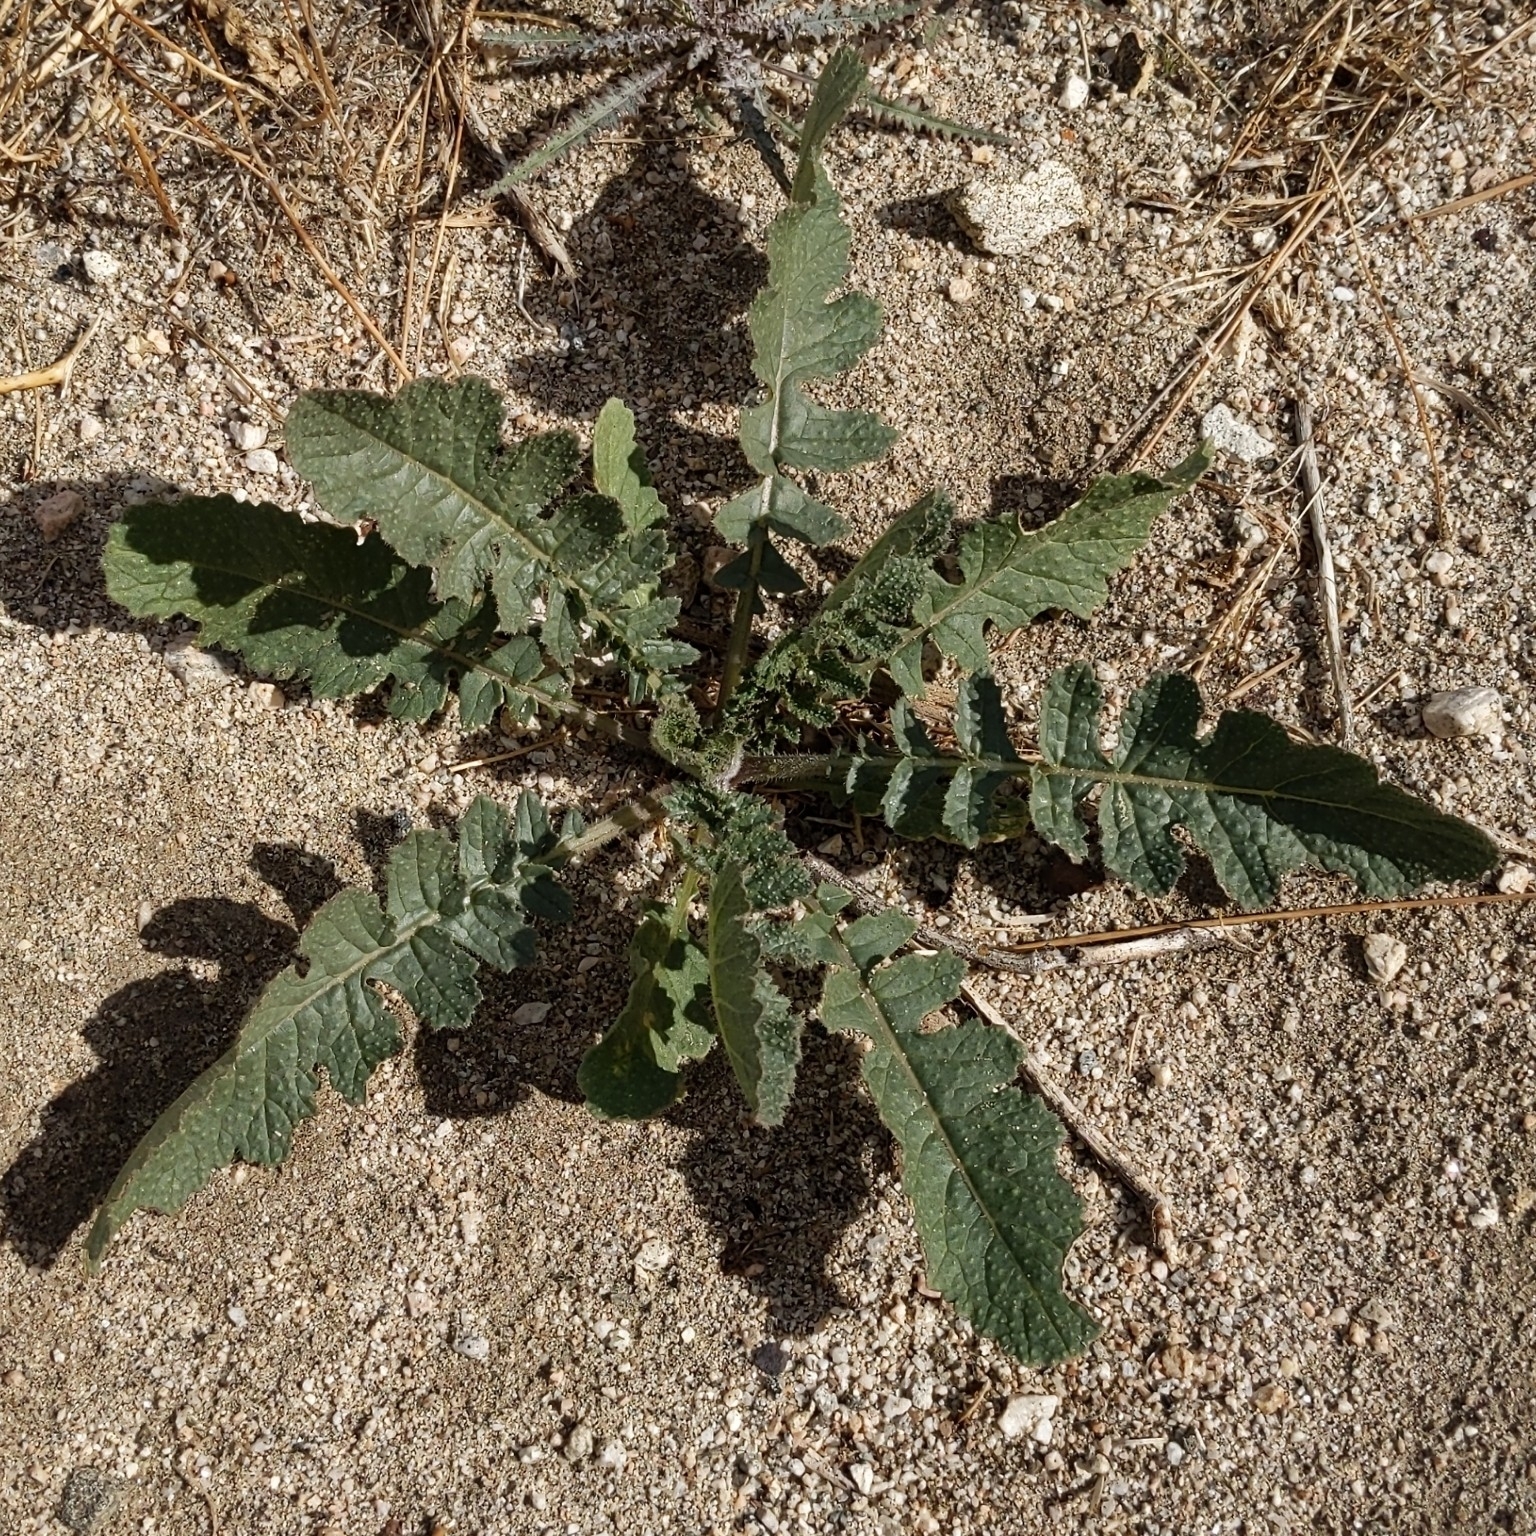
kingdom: Plantae
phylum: Tracheophyta
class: Magnoliopsida
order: Brassicales
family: Brassicaceae
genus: Brassica
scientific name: Brassica tournefortii
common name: Pale cabbage
